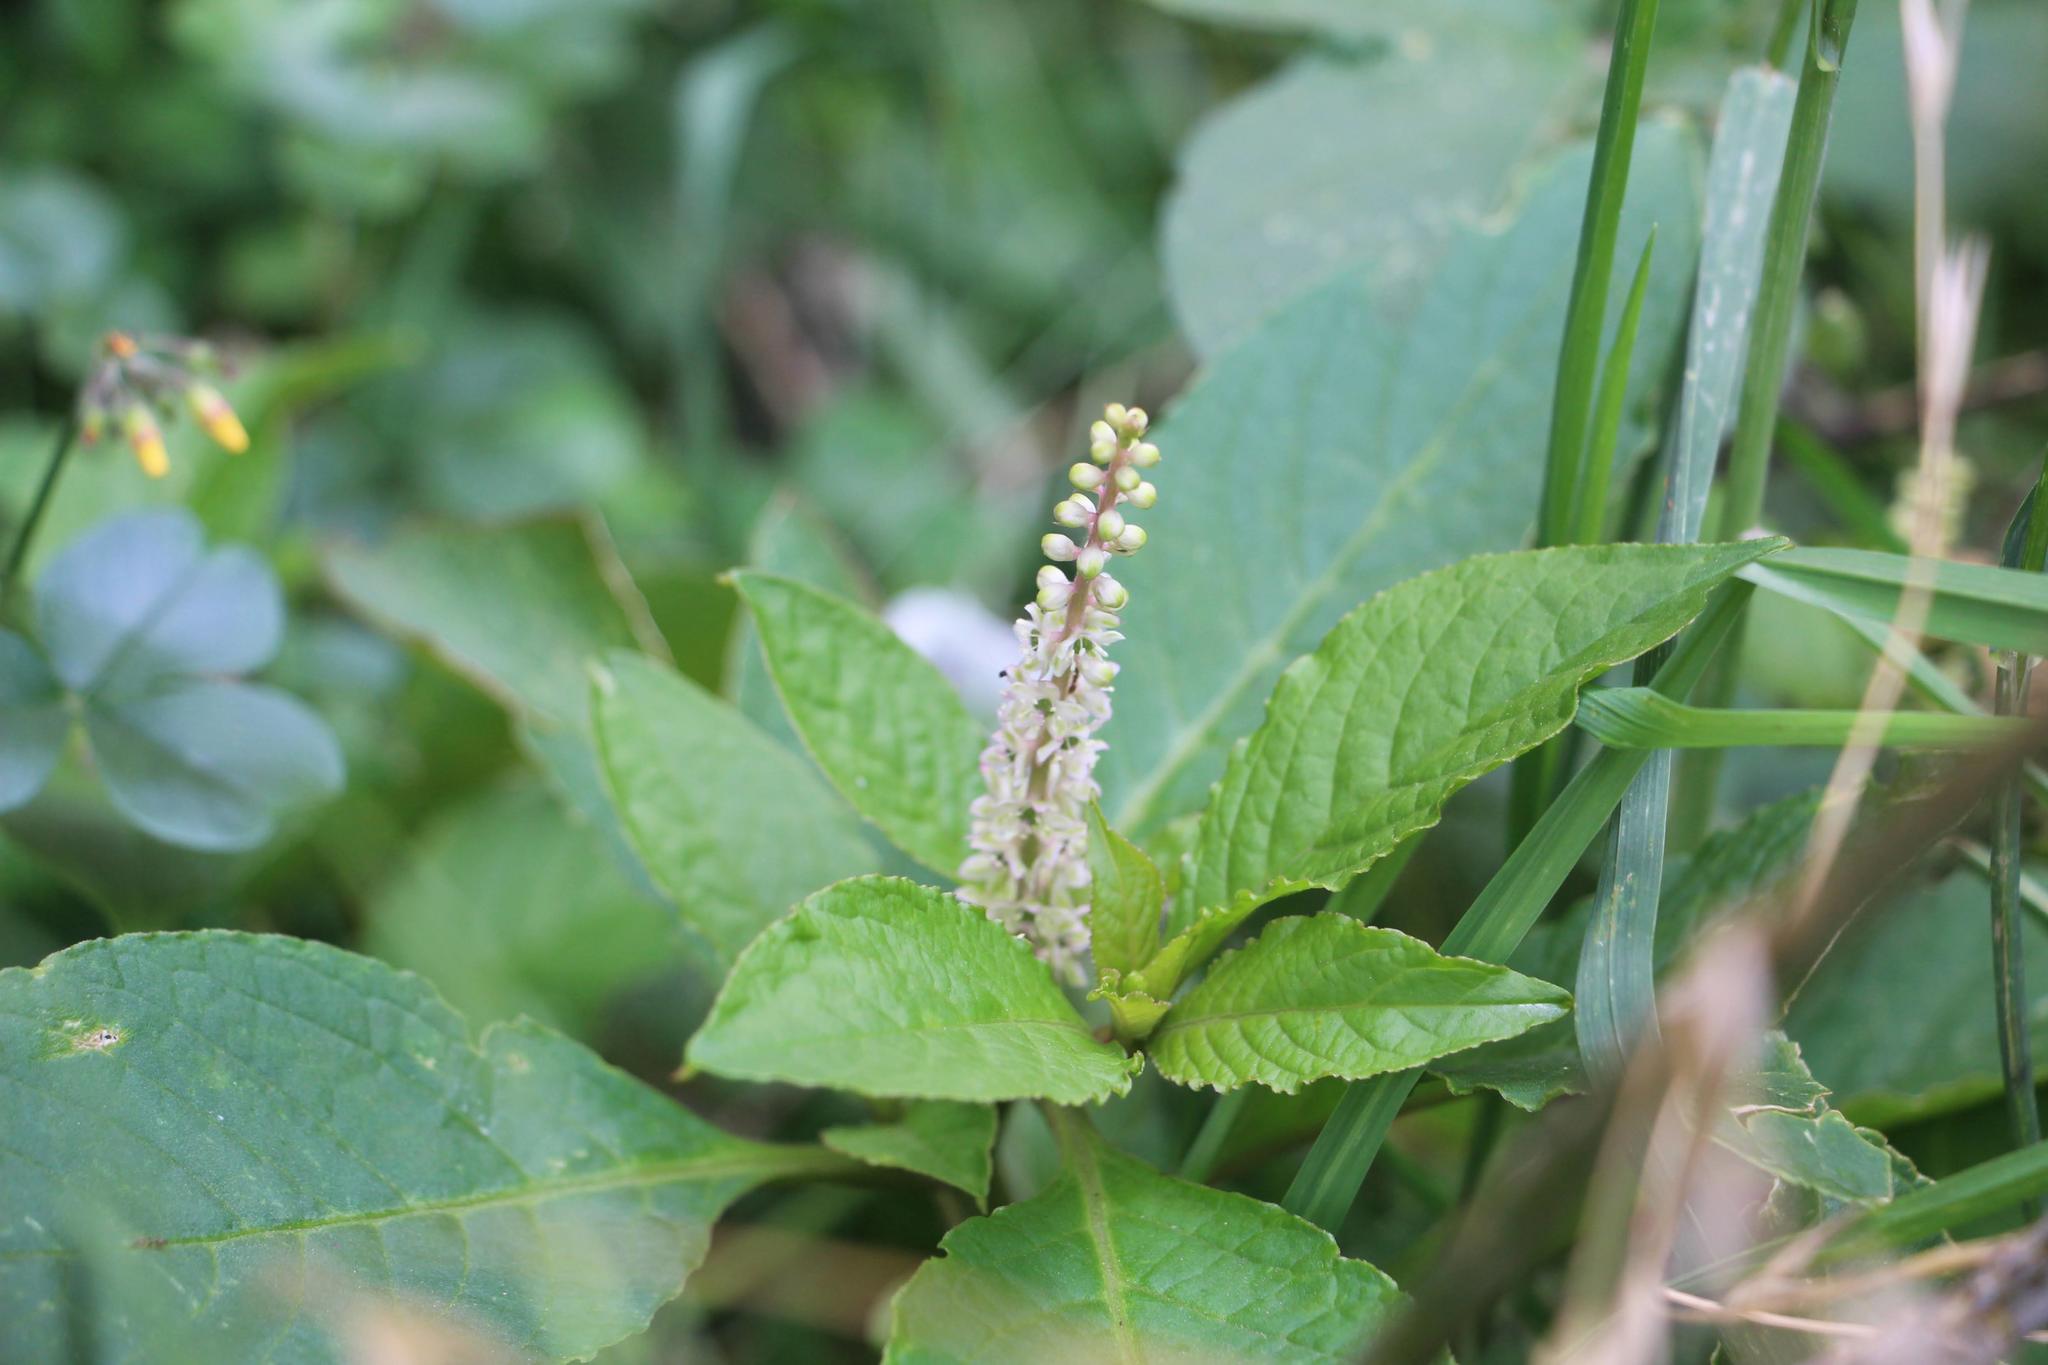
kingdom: Plantae
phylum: Tracheophyta
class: Magnoliopsida
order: Caryophyllales
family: Phytolaccaceae
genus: Phytolacca
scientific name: Phytolacca icosandra
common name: Button pokeweed
